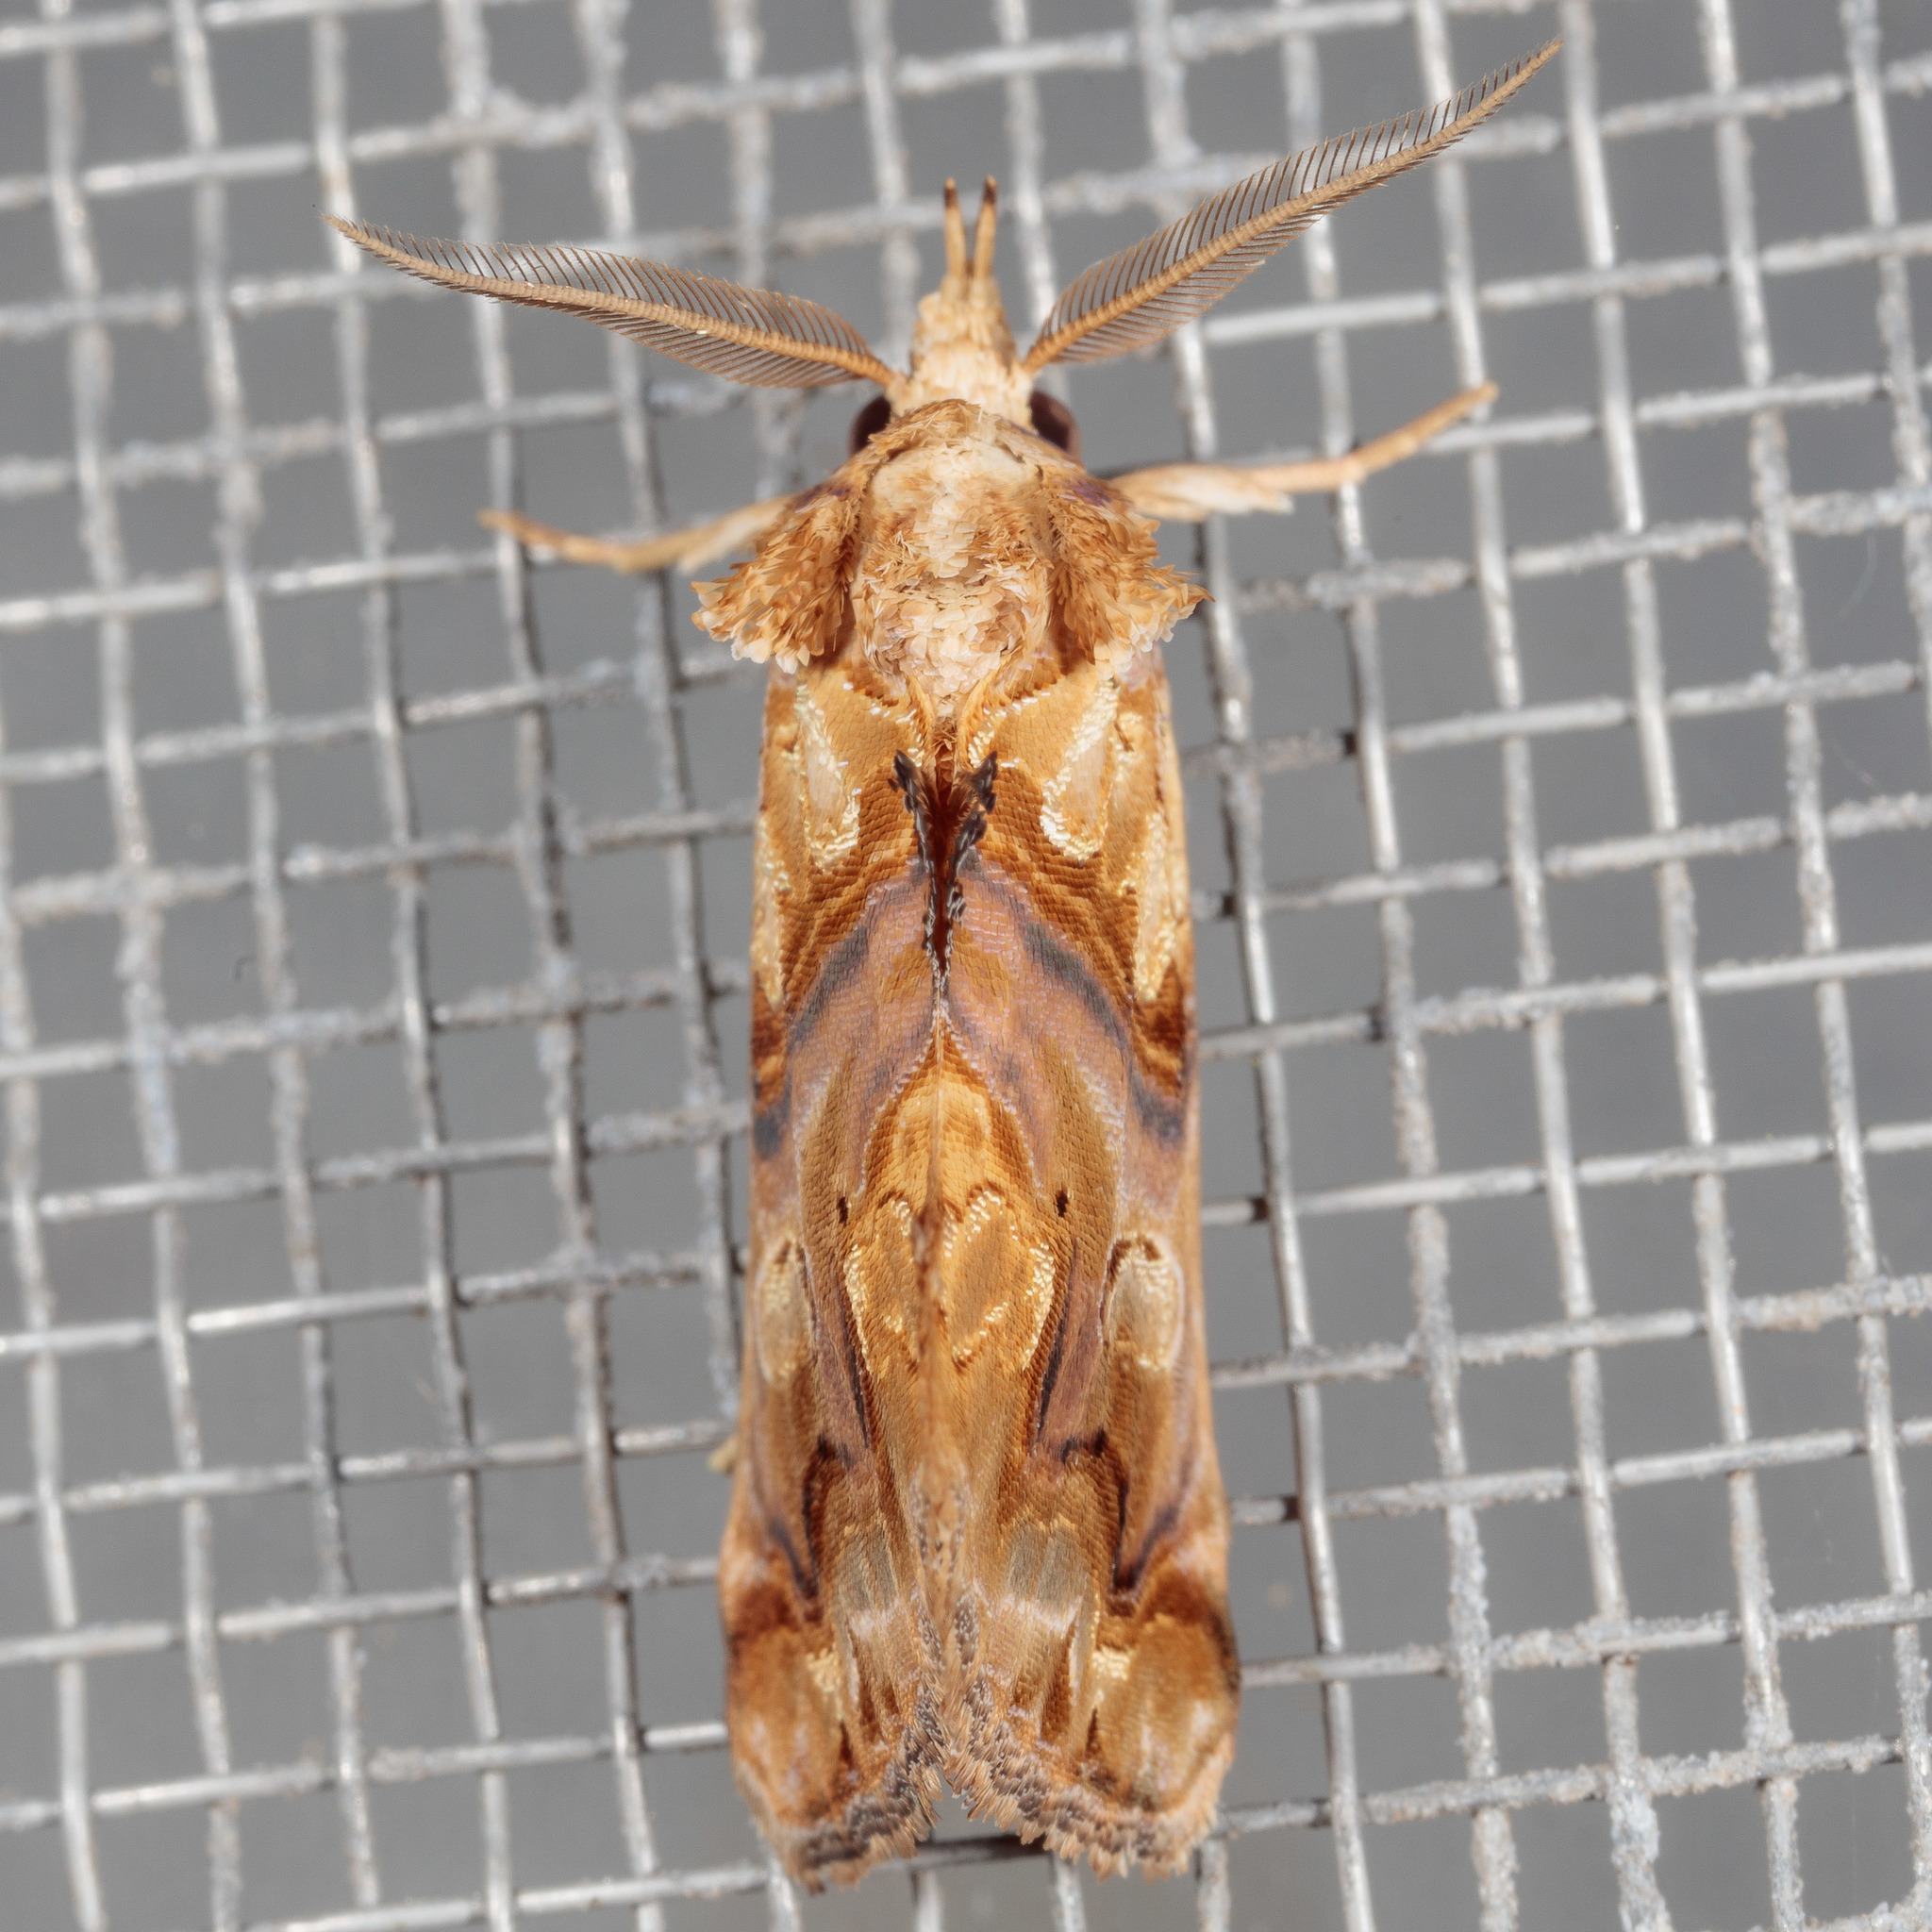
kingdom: Animalia
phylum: Arthropoda
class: Insecta
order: Lepidoptera
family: Erebidae
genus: Plusiodonta
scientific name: Plusiodonta compressipalpis
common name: Moonseed moth
